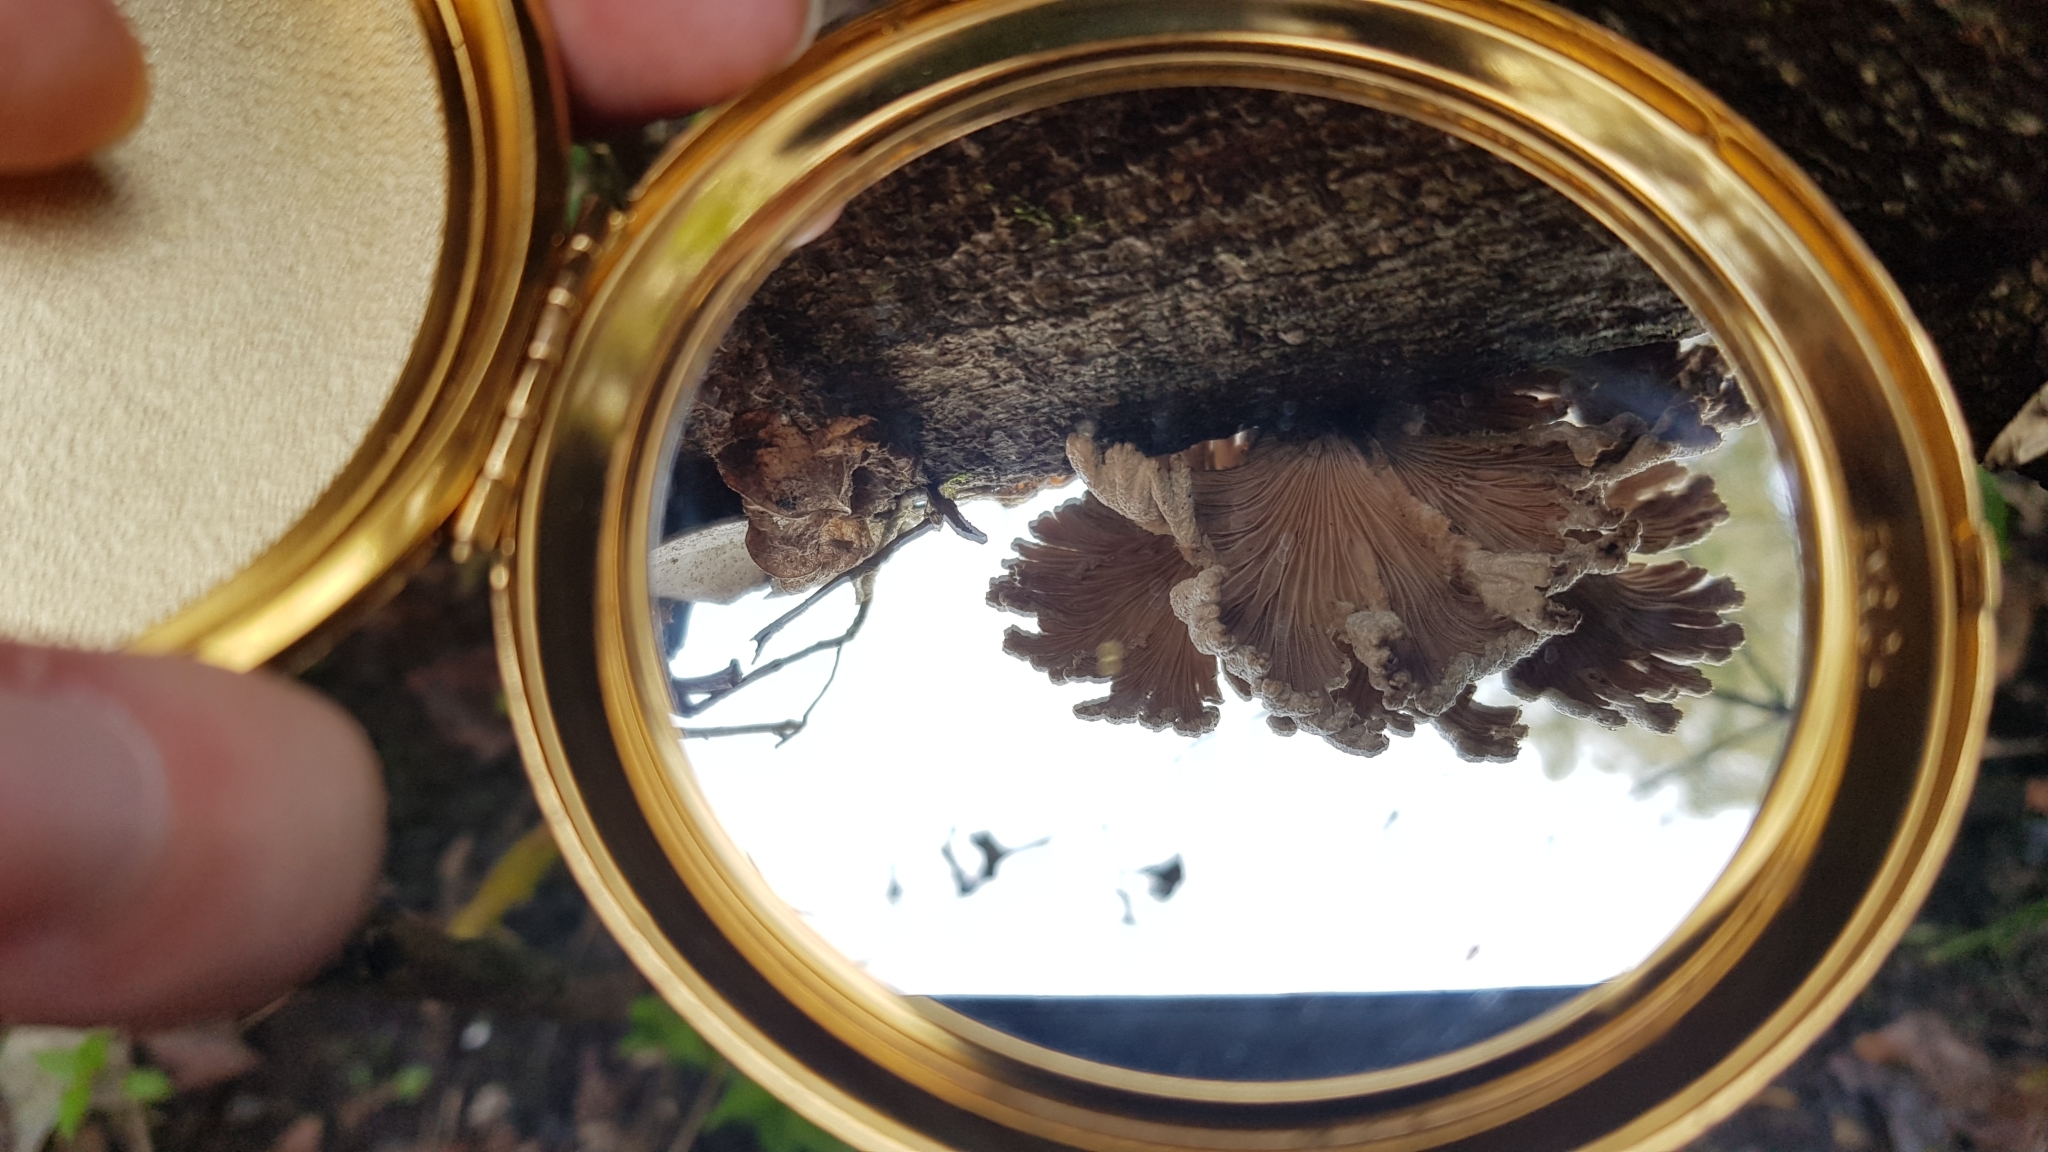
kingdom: Fungi
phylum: Basidiomycota
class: Agaricomycetes
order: Agaricales
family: Schizophyllaceae
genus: Schizophyllum
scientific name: Schizophyllum commune
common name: Common porecrust
